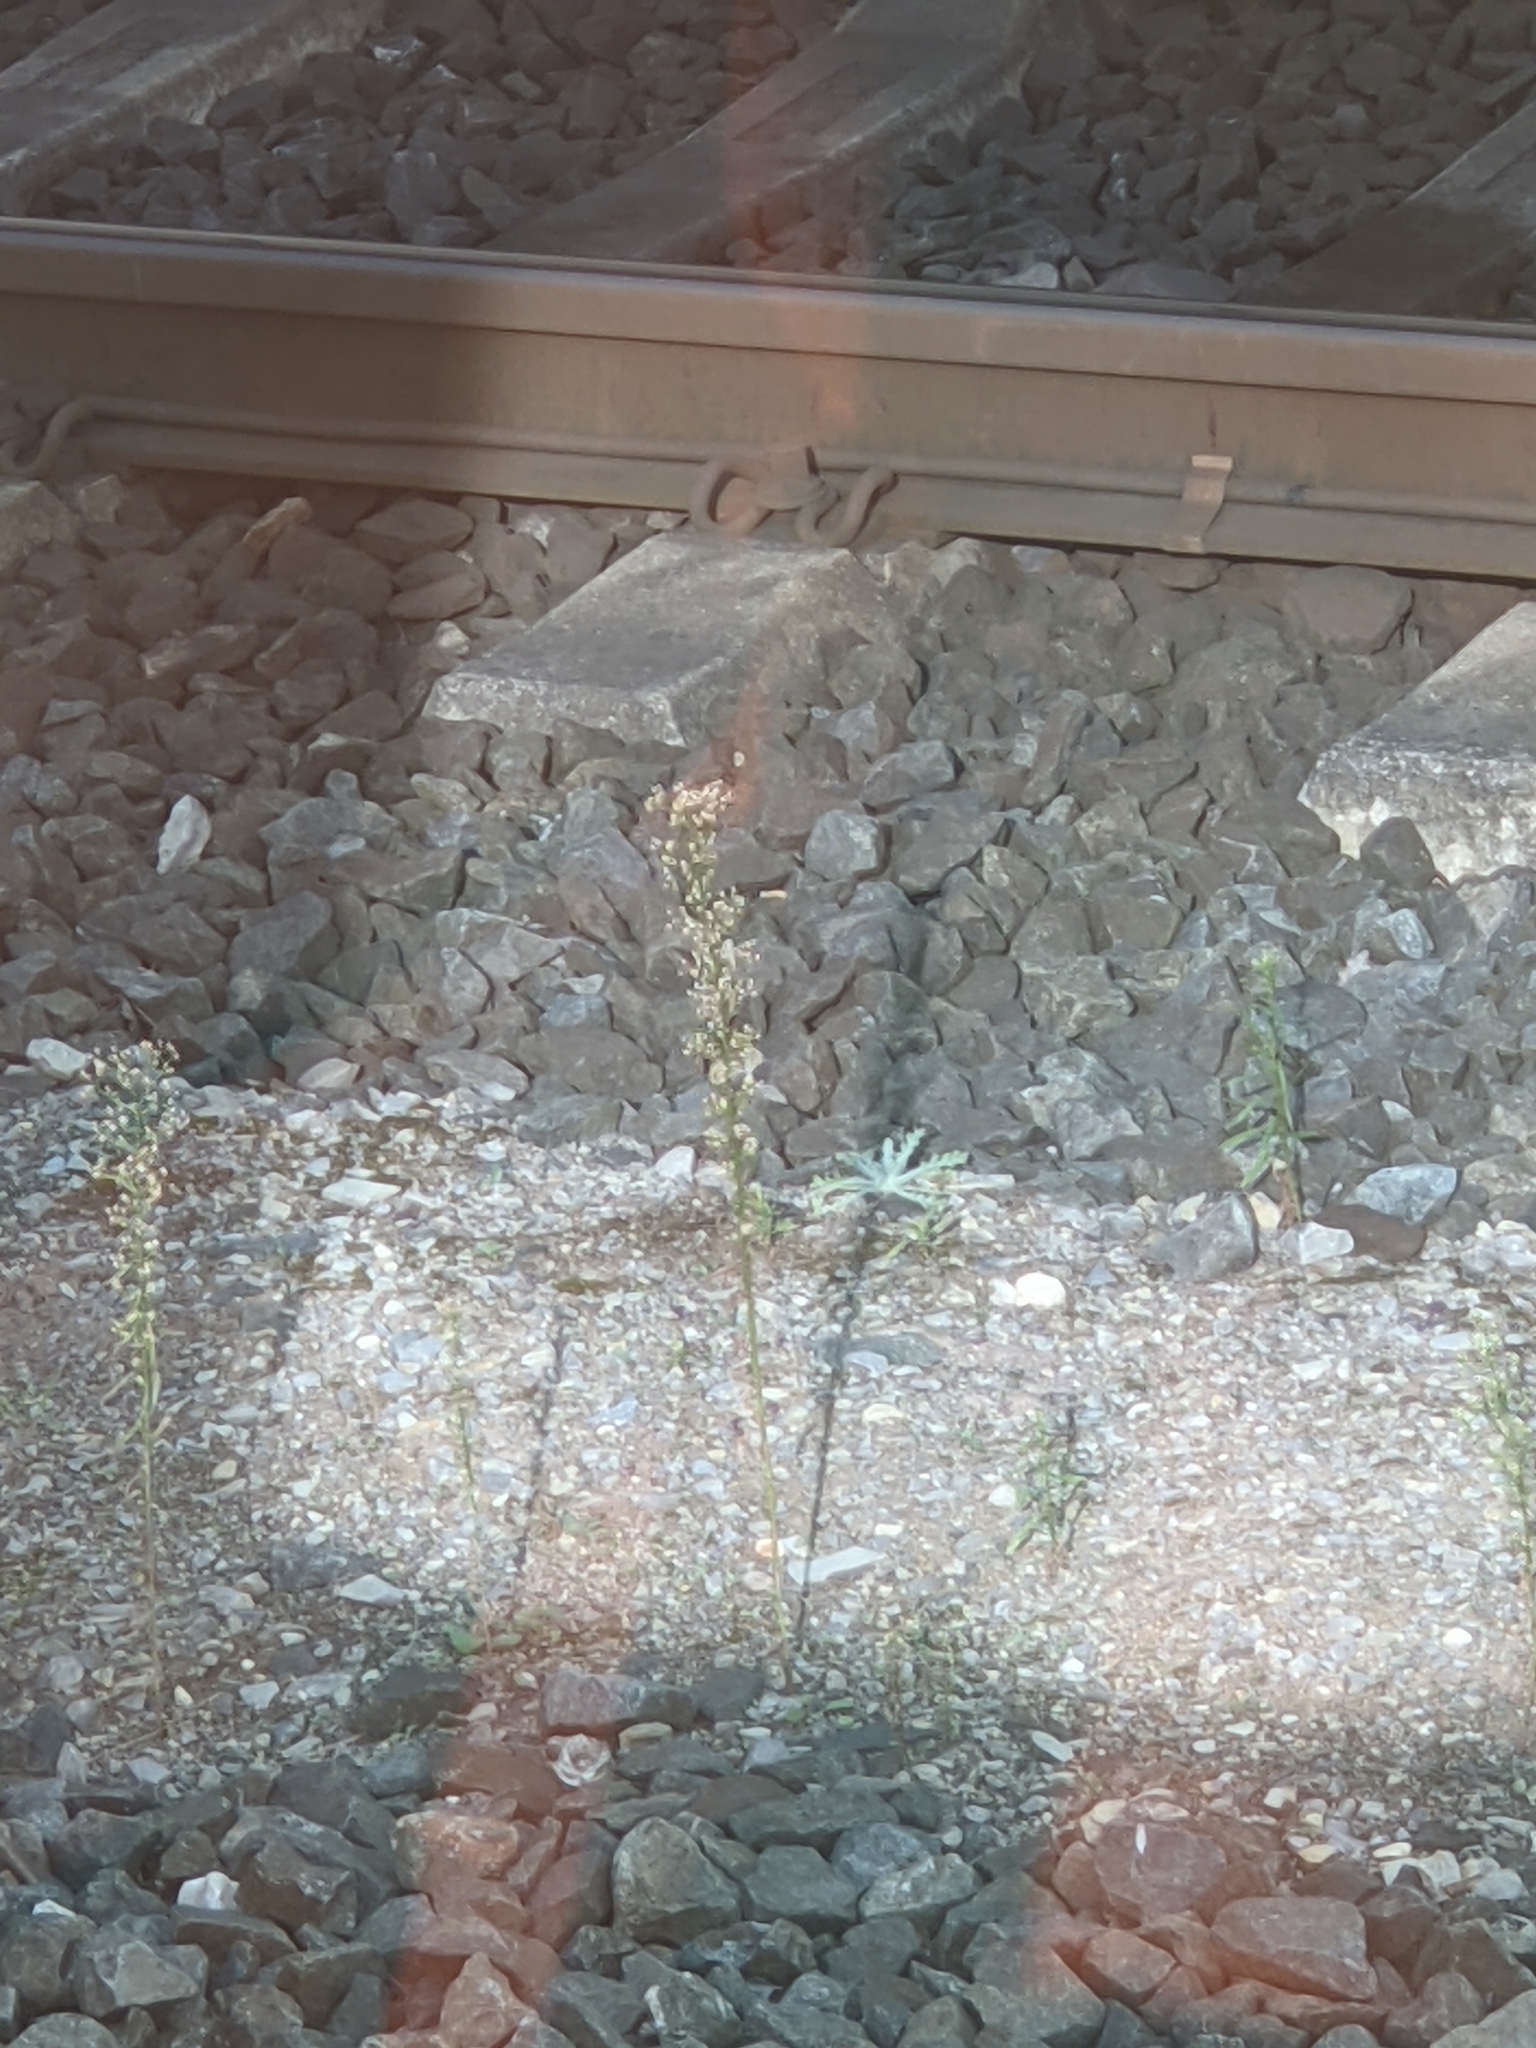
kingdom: Plantae
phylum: Tracheophyta
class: Magnoliopsida
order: Asterales
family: Asteraceae
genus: Erigeron
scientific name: Erigeron canadensis
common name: Canadian fleabane
